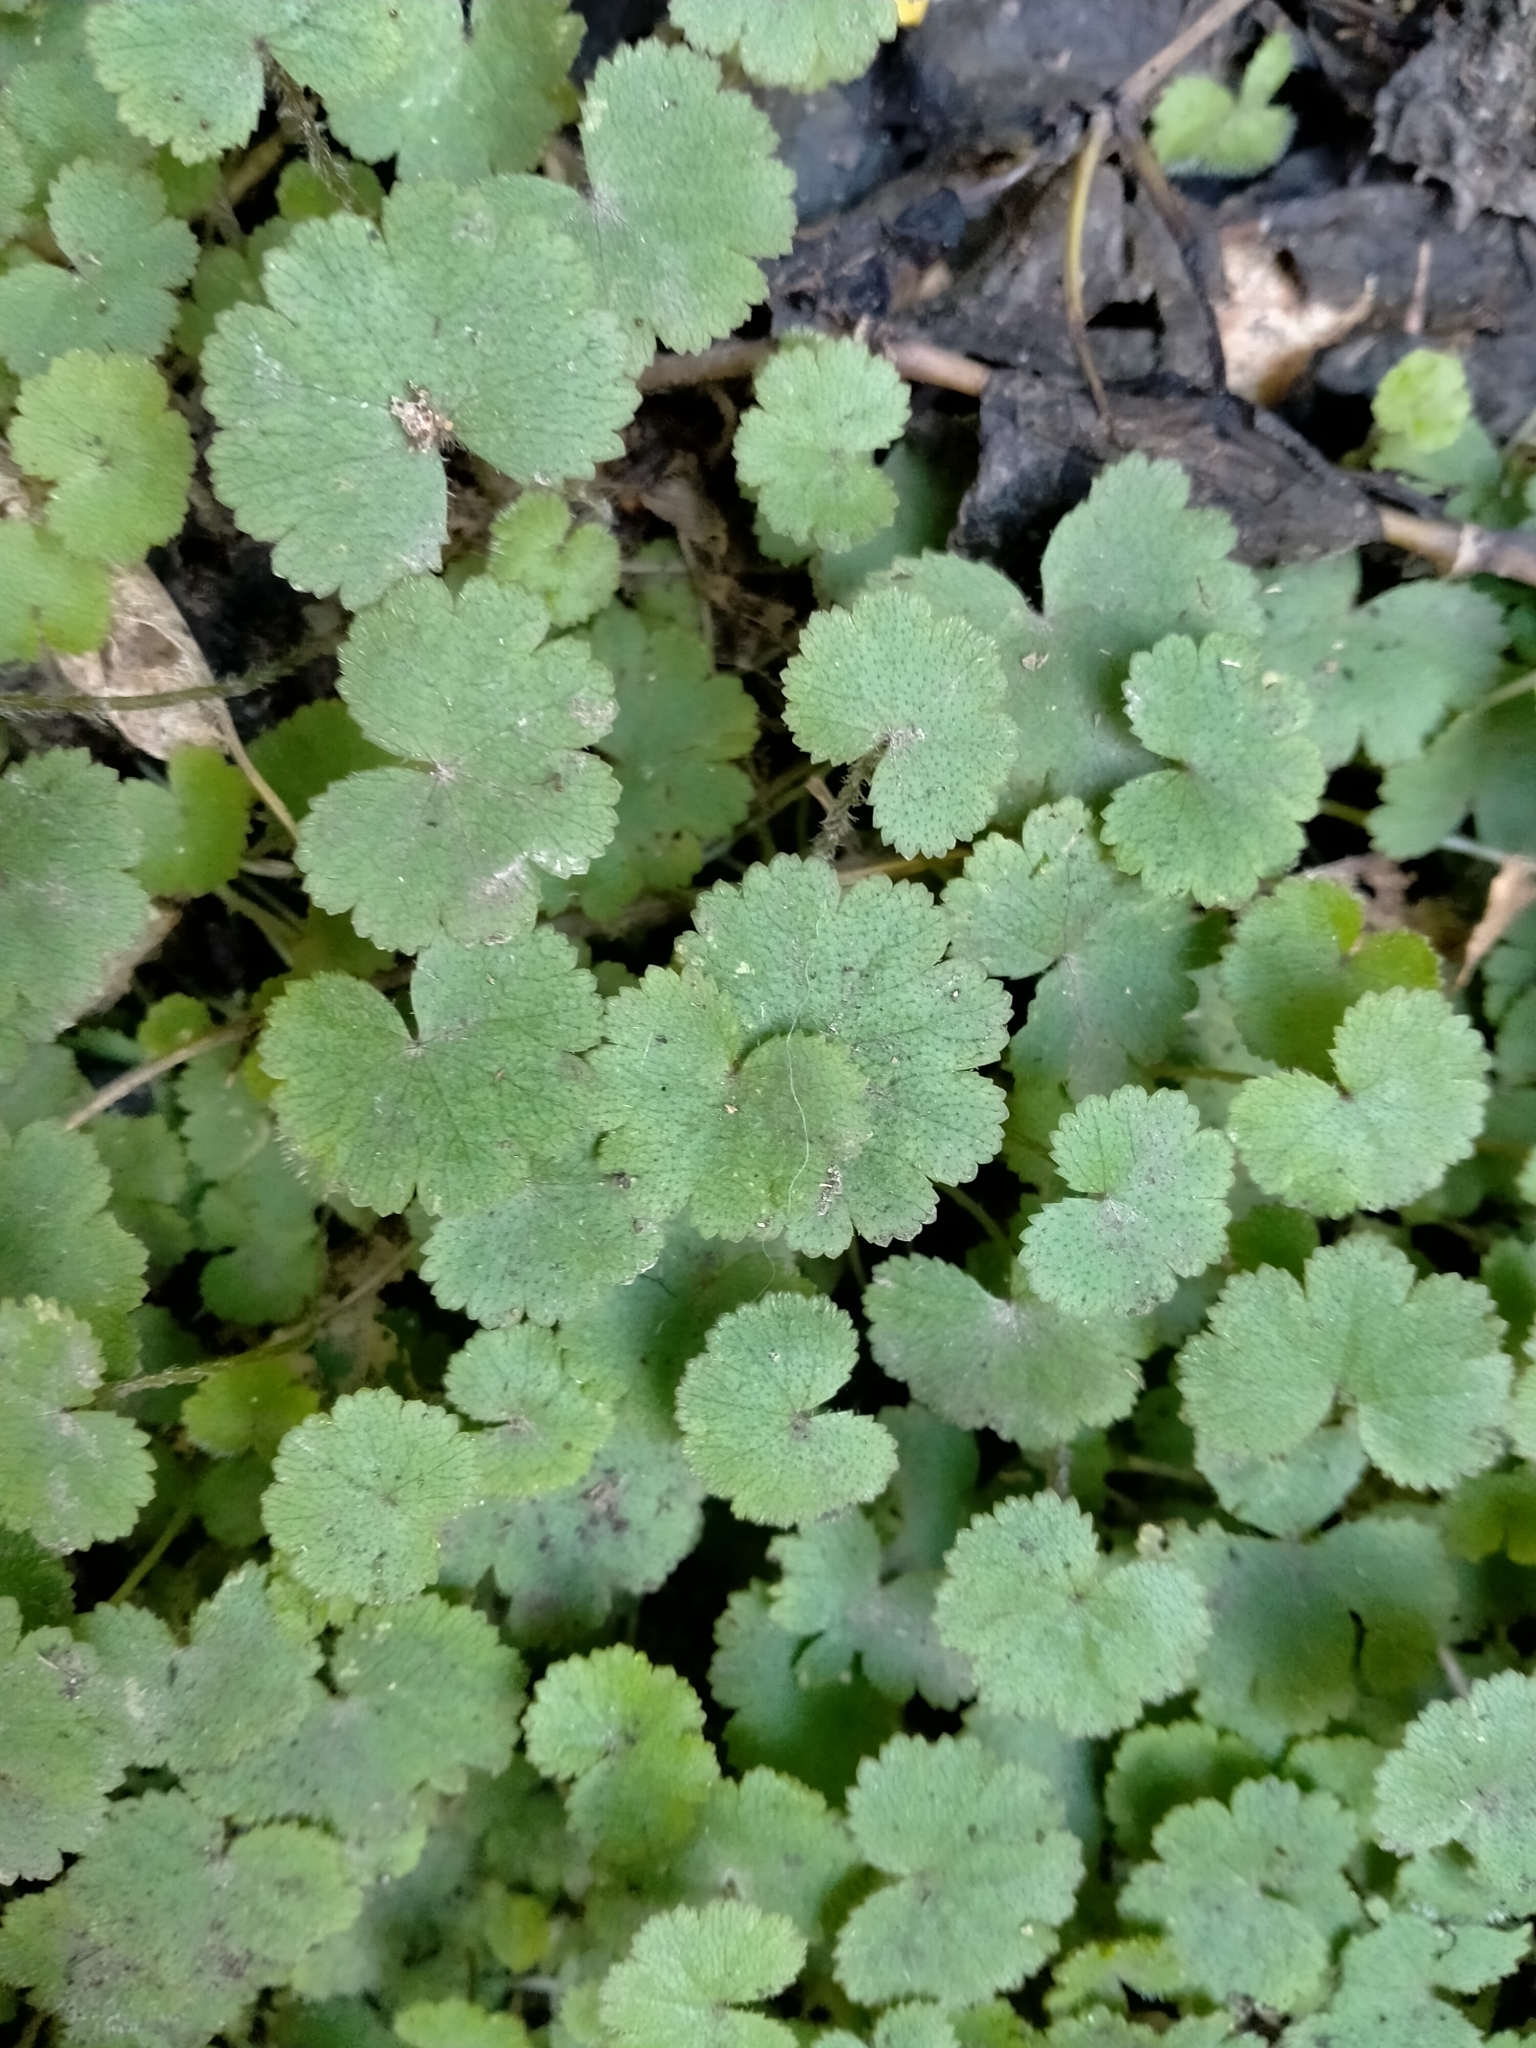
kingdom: Plantae
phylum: Tracheophyta
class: Magnoliopsida
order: Apiales
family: Araliaceae
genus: Hydrocotyle
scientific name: Hydrocotyle moschata
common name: Hairy pennywort
